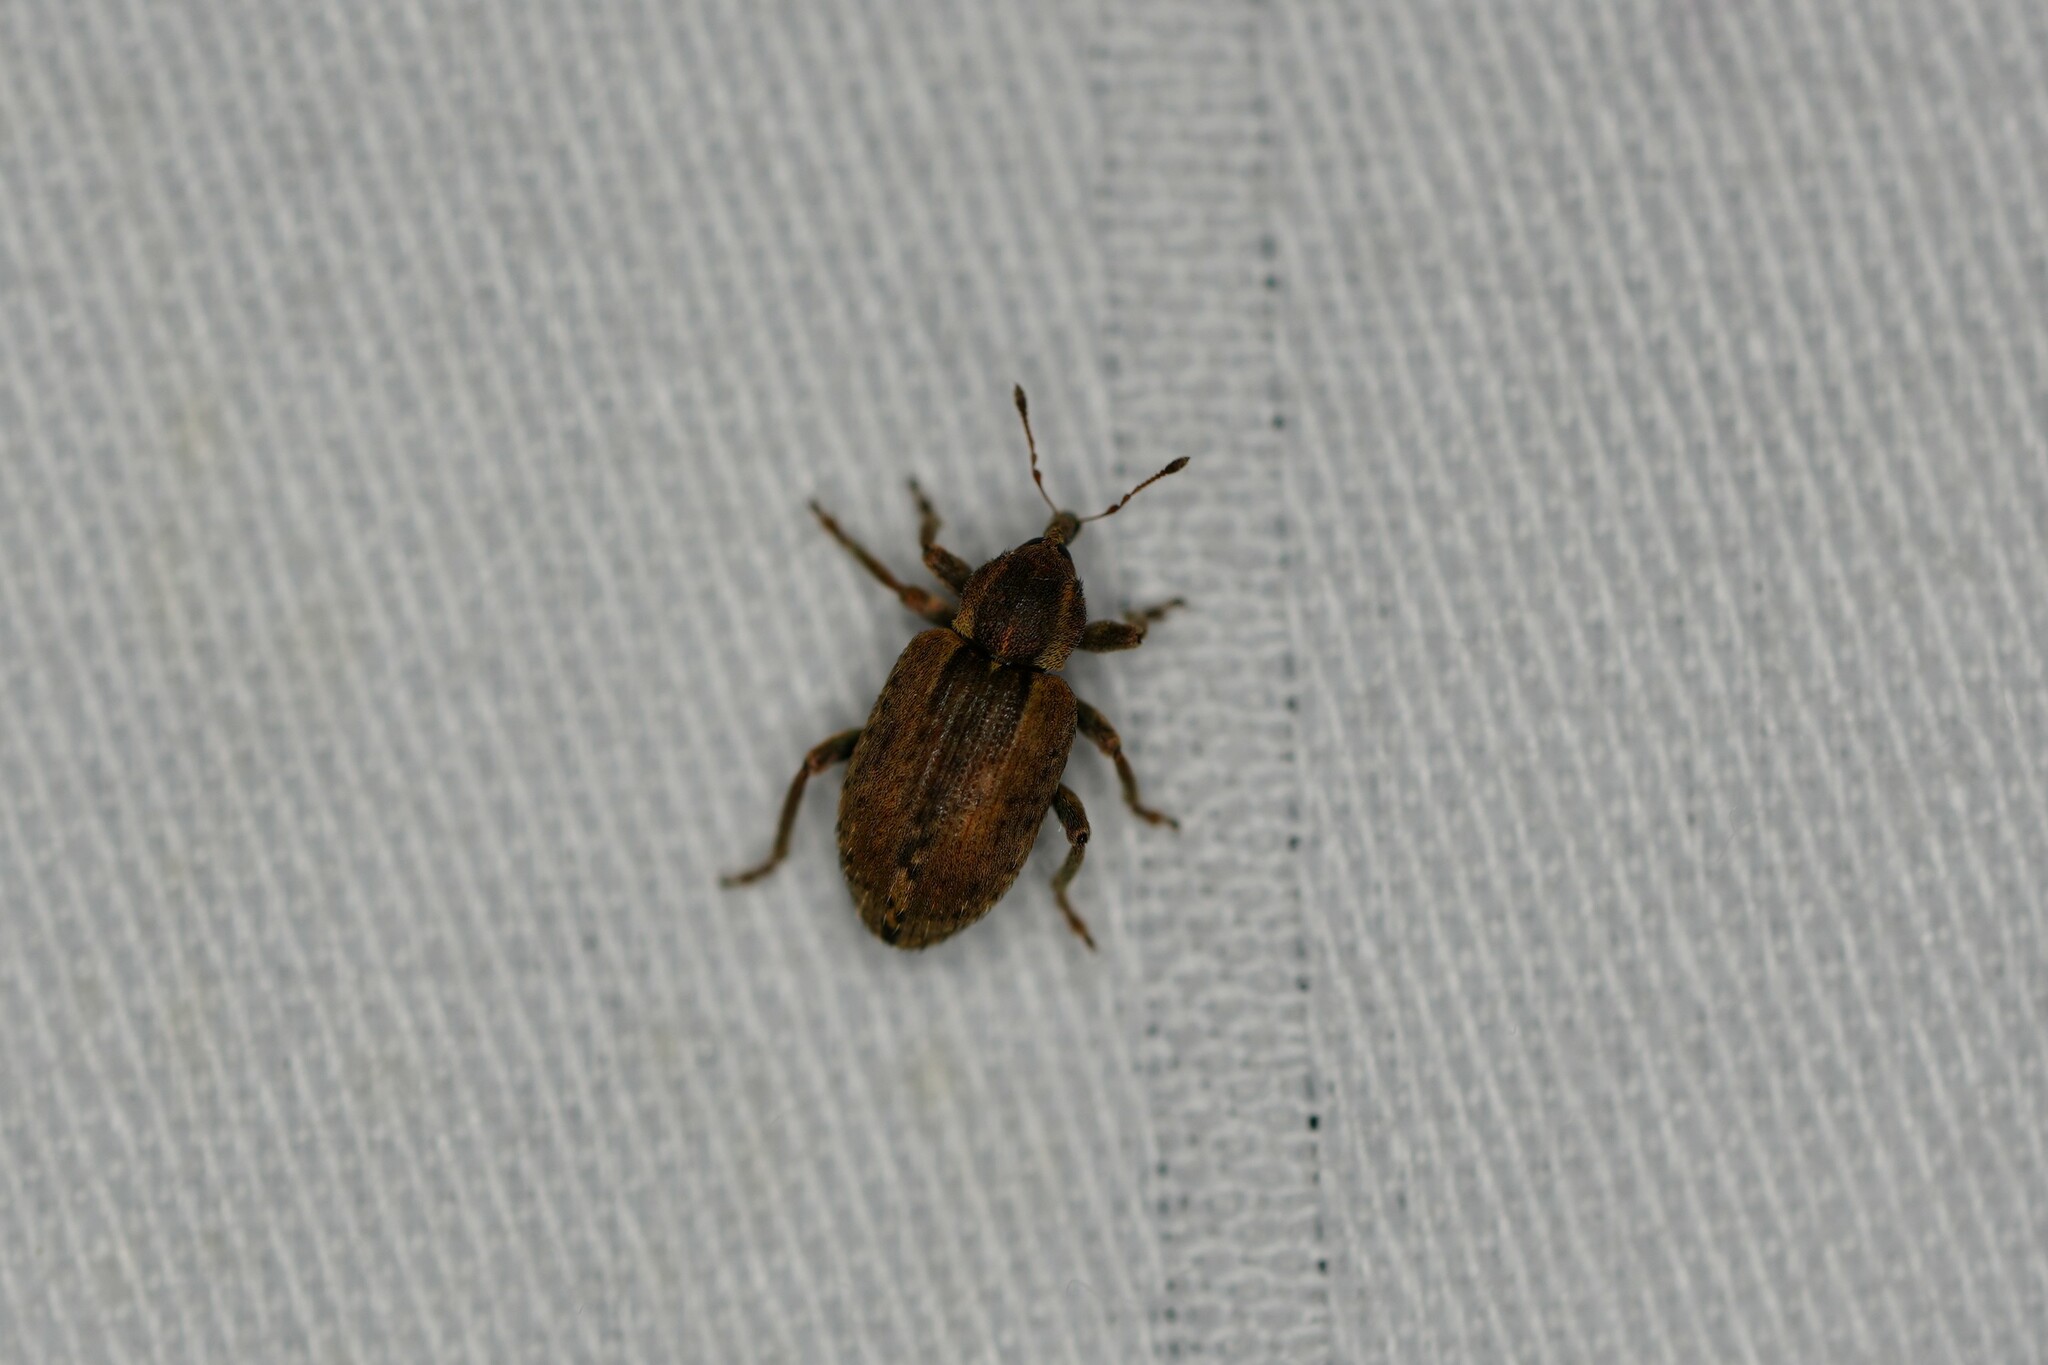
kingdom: Animalia
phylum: Arthropoda
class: Insecta
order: Coleoptera
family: Curculionidae
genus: Hypera
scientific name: Hypera postica
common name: Weevil
